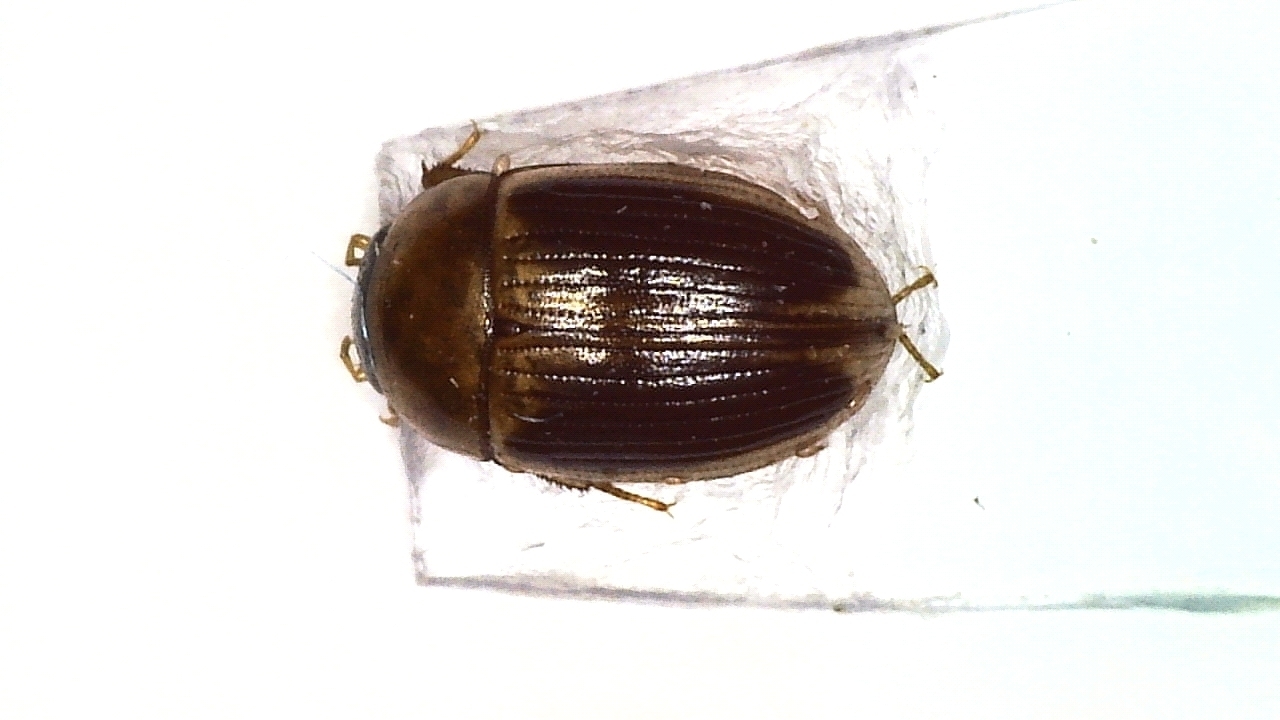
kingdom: Animalia
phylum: Arthropoda
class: Insecta
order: Coleoptera
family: Hydrophilidae
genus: Cercyon
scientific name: Cercyon laminatus
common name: Water scavenger beetle
